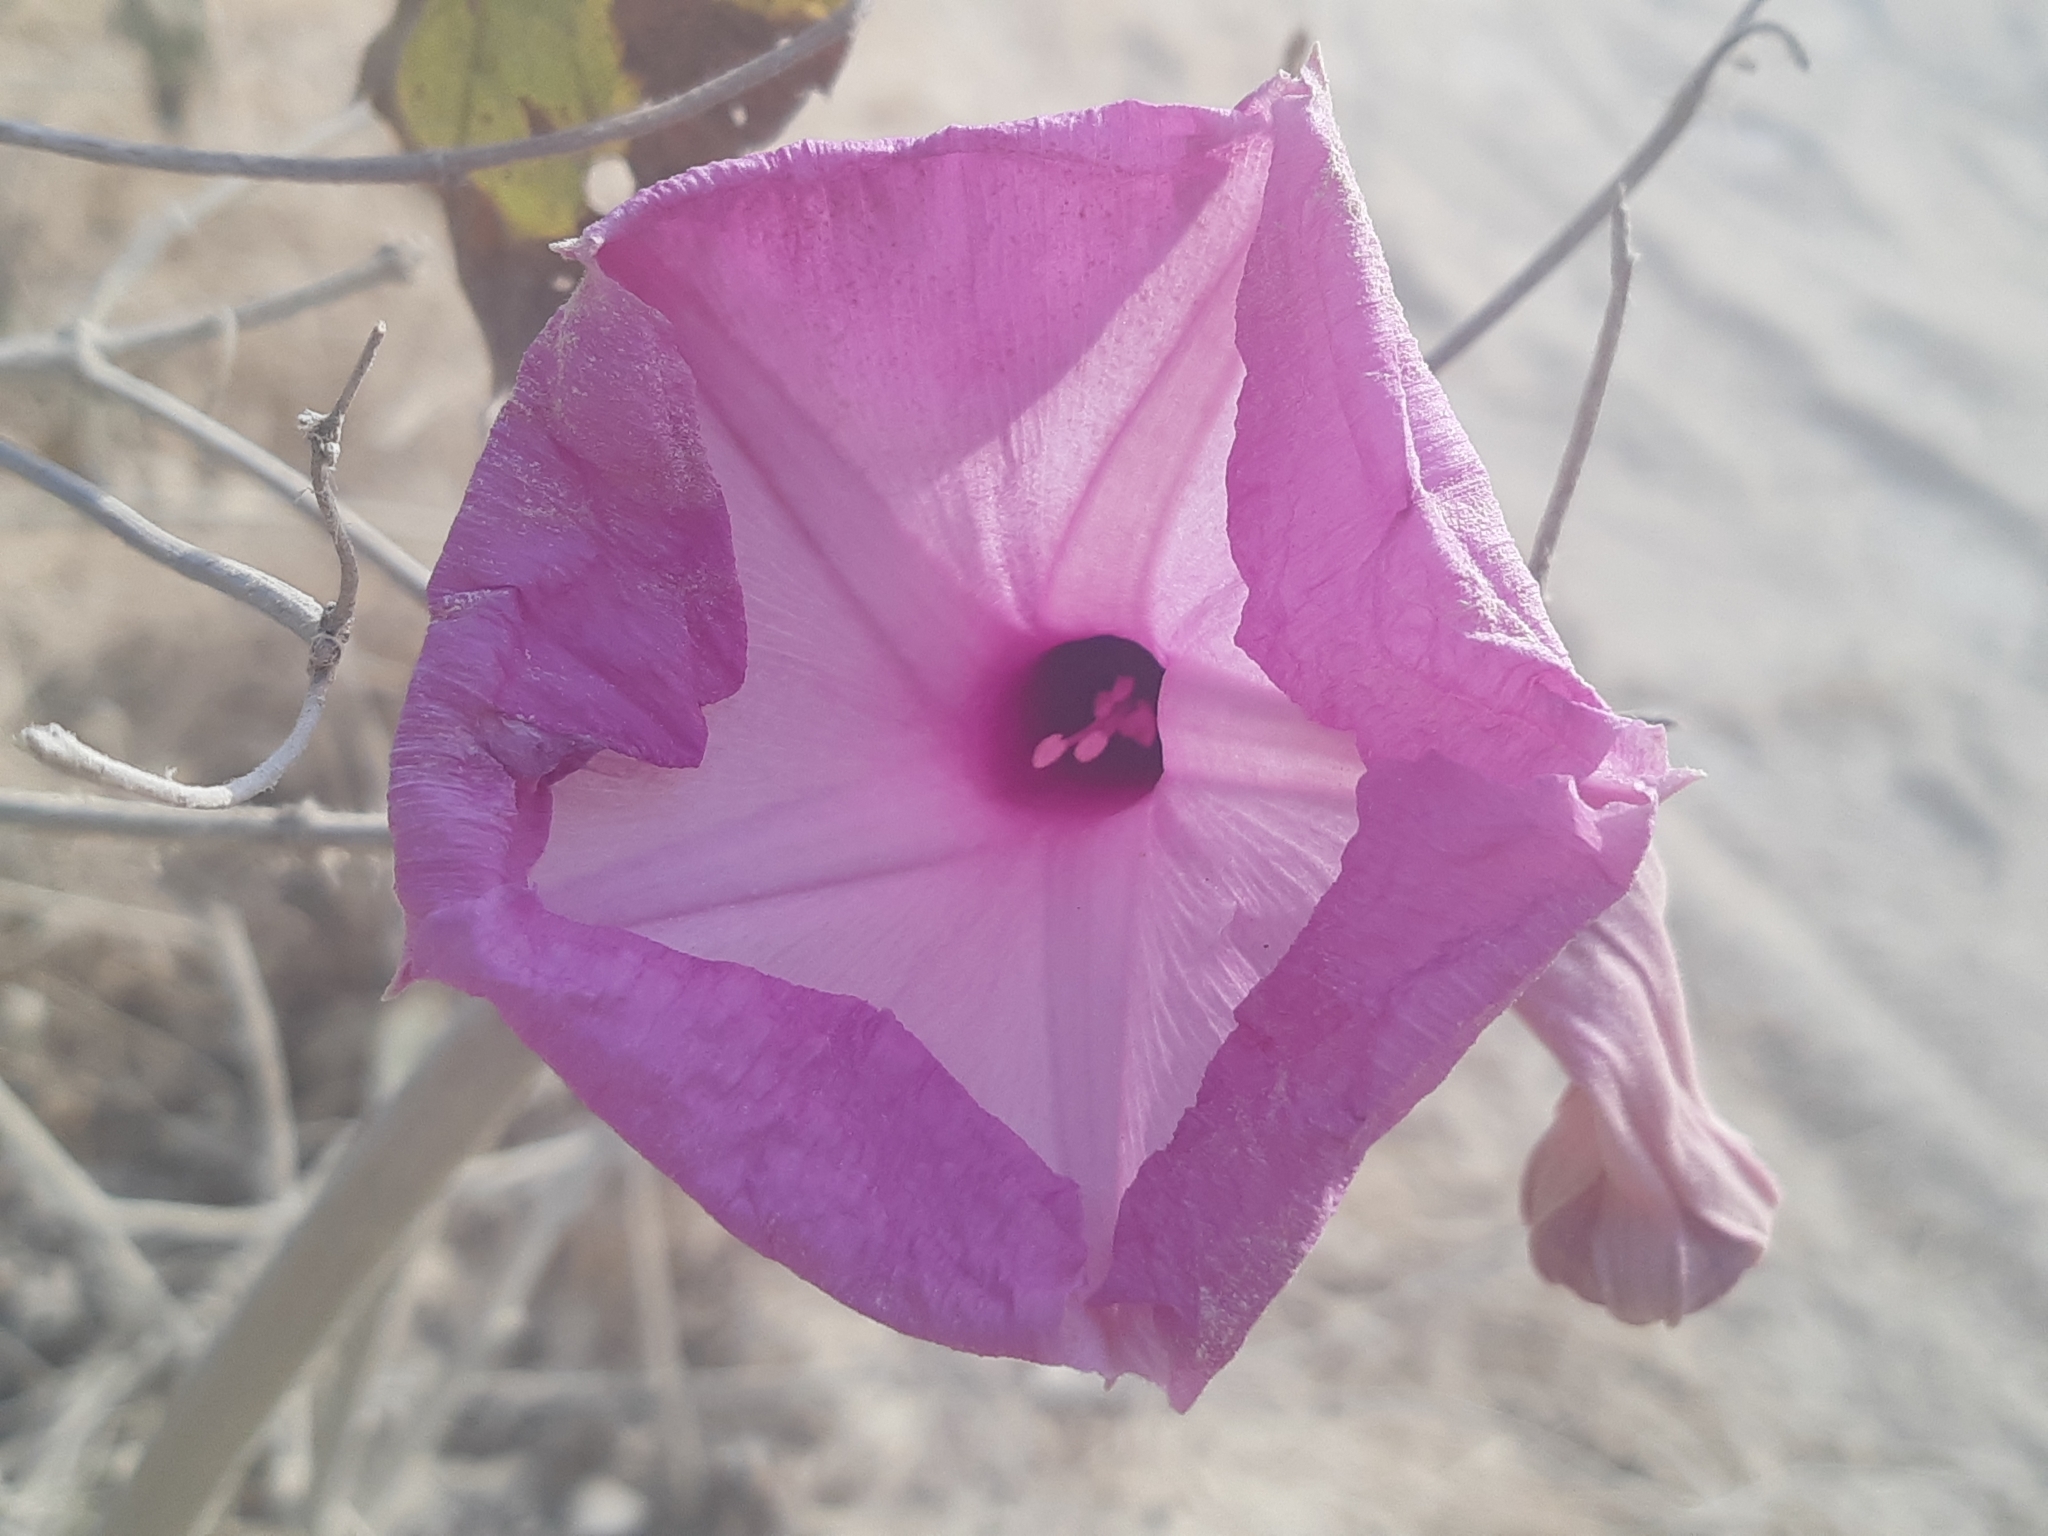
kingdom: Plantae
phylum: Tracheophyta
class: Magnoliopsida
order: Solanales
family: Convolvulaceae
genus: Ipomoea
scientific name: Ipomoea carnea
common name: Morning-glory
